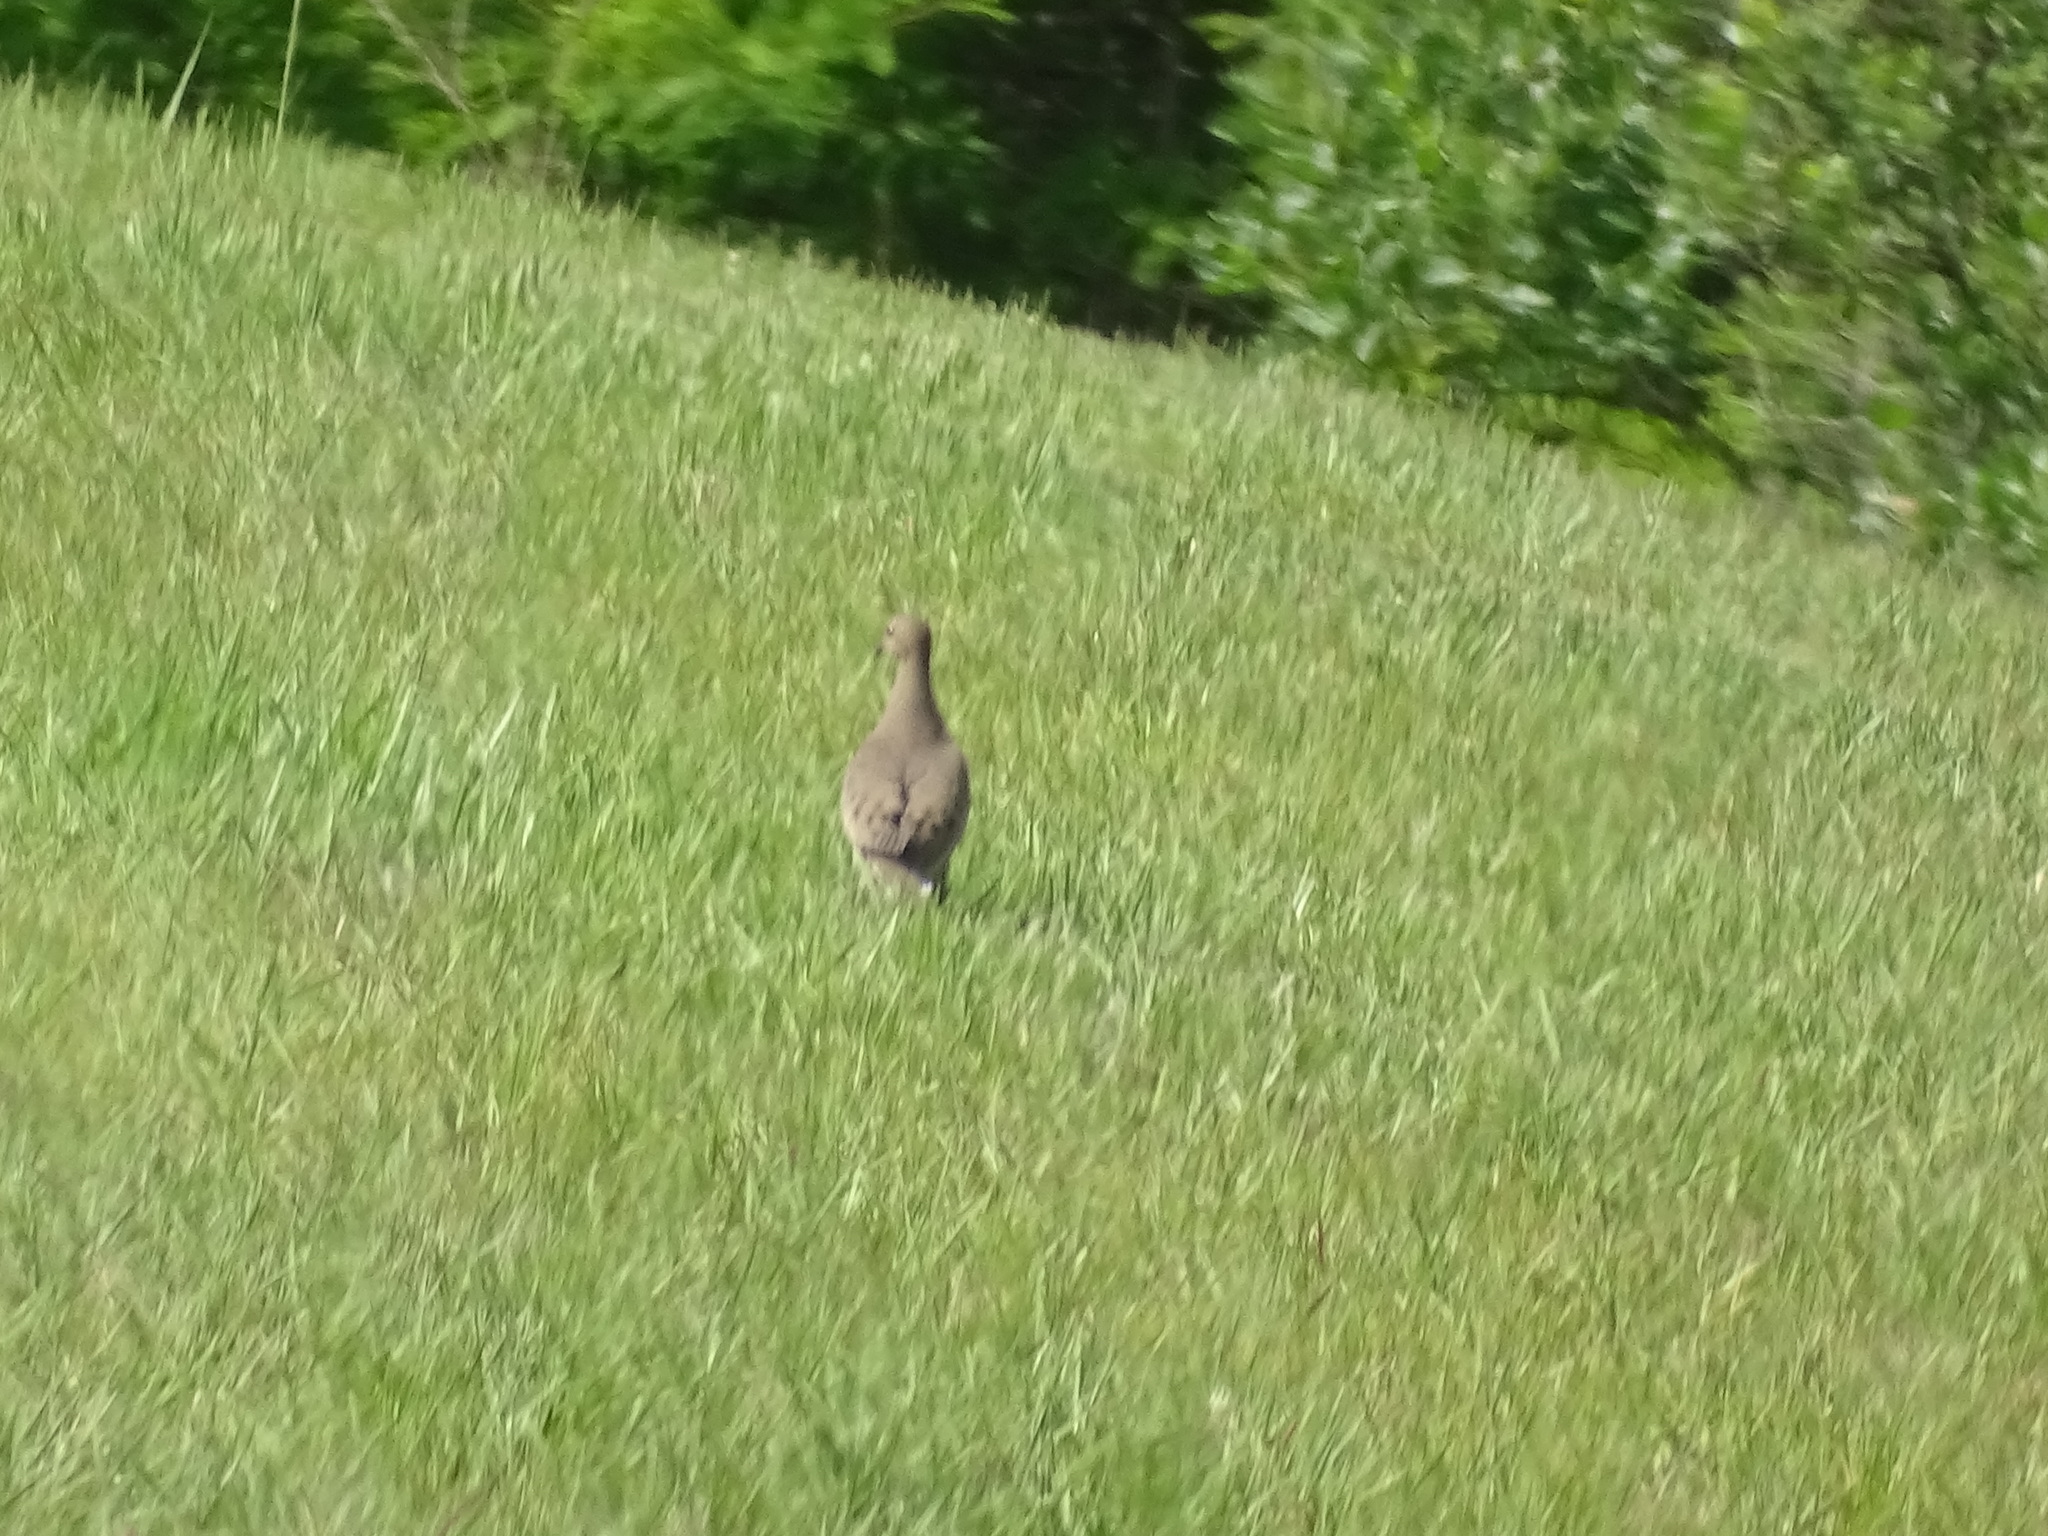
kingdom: Animalia
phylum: Chordata
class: Aves
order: Columbiformes
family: Columbidae
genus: Zenaida
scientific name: Zenaida macroura
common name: Mourning dove
